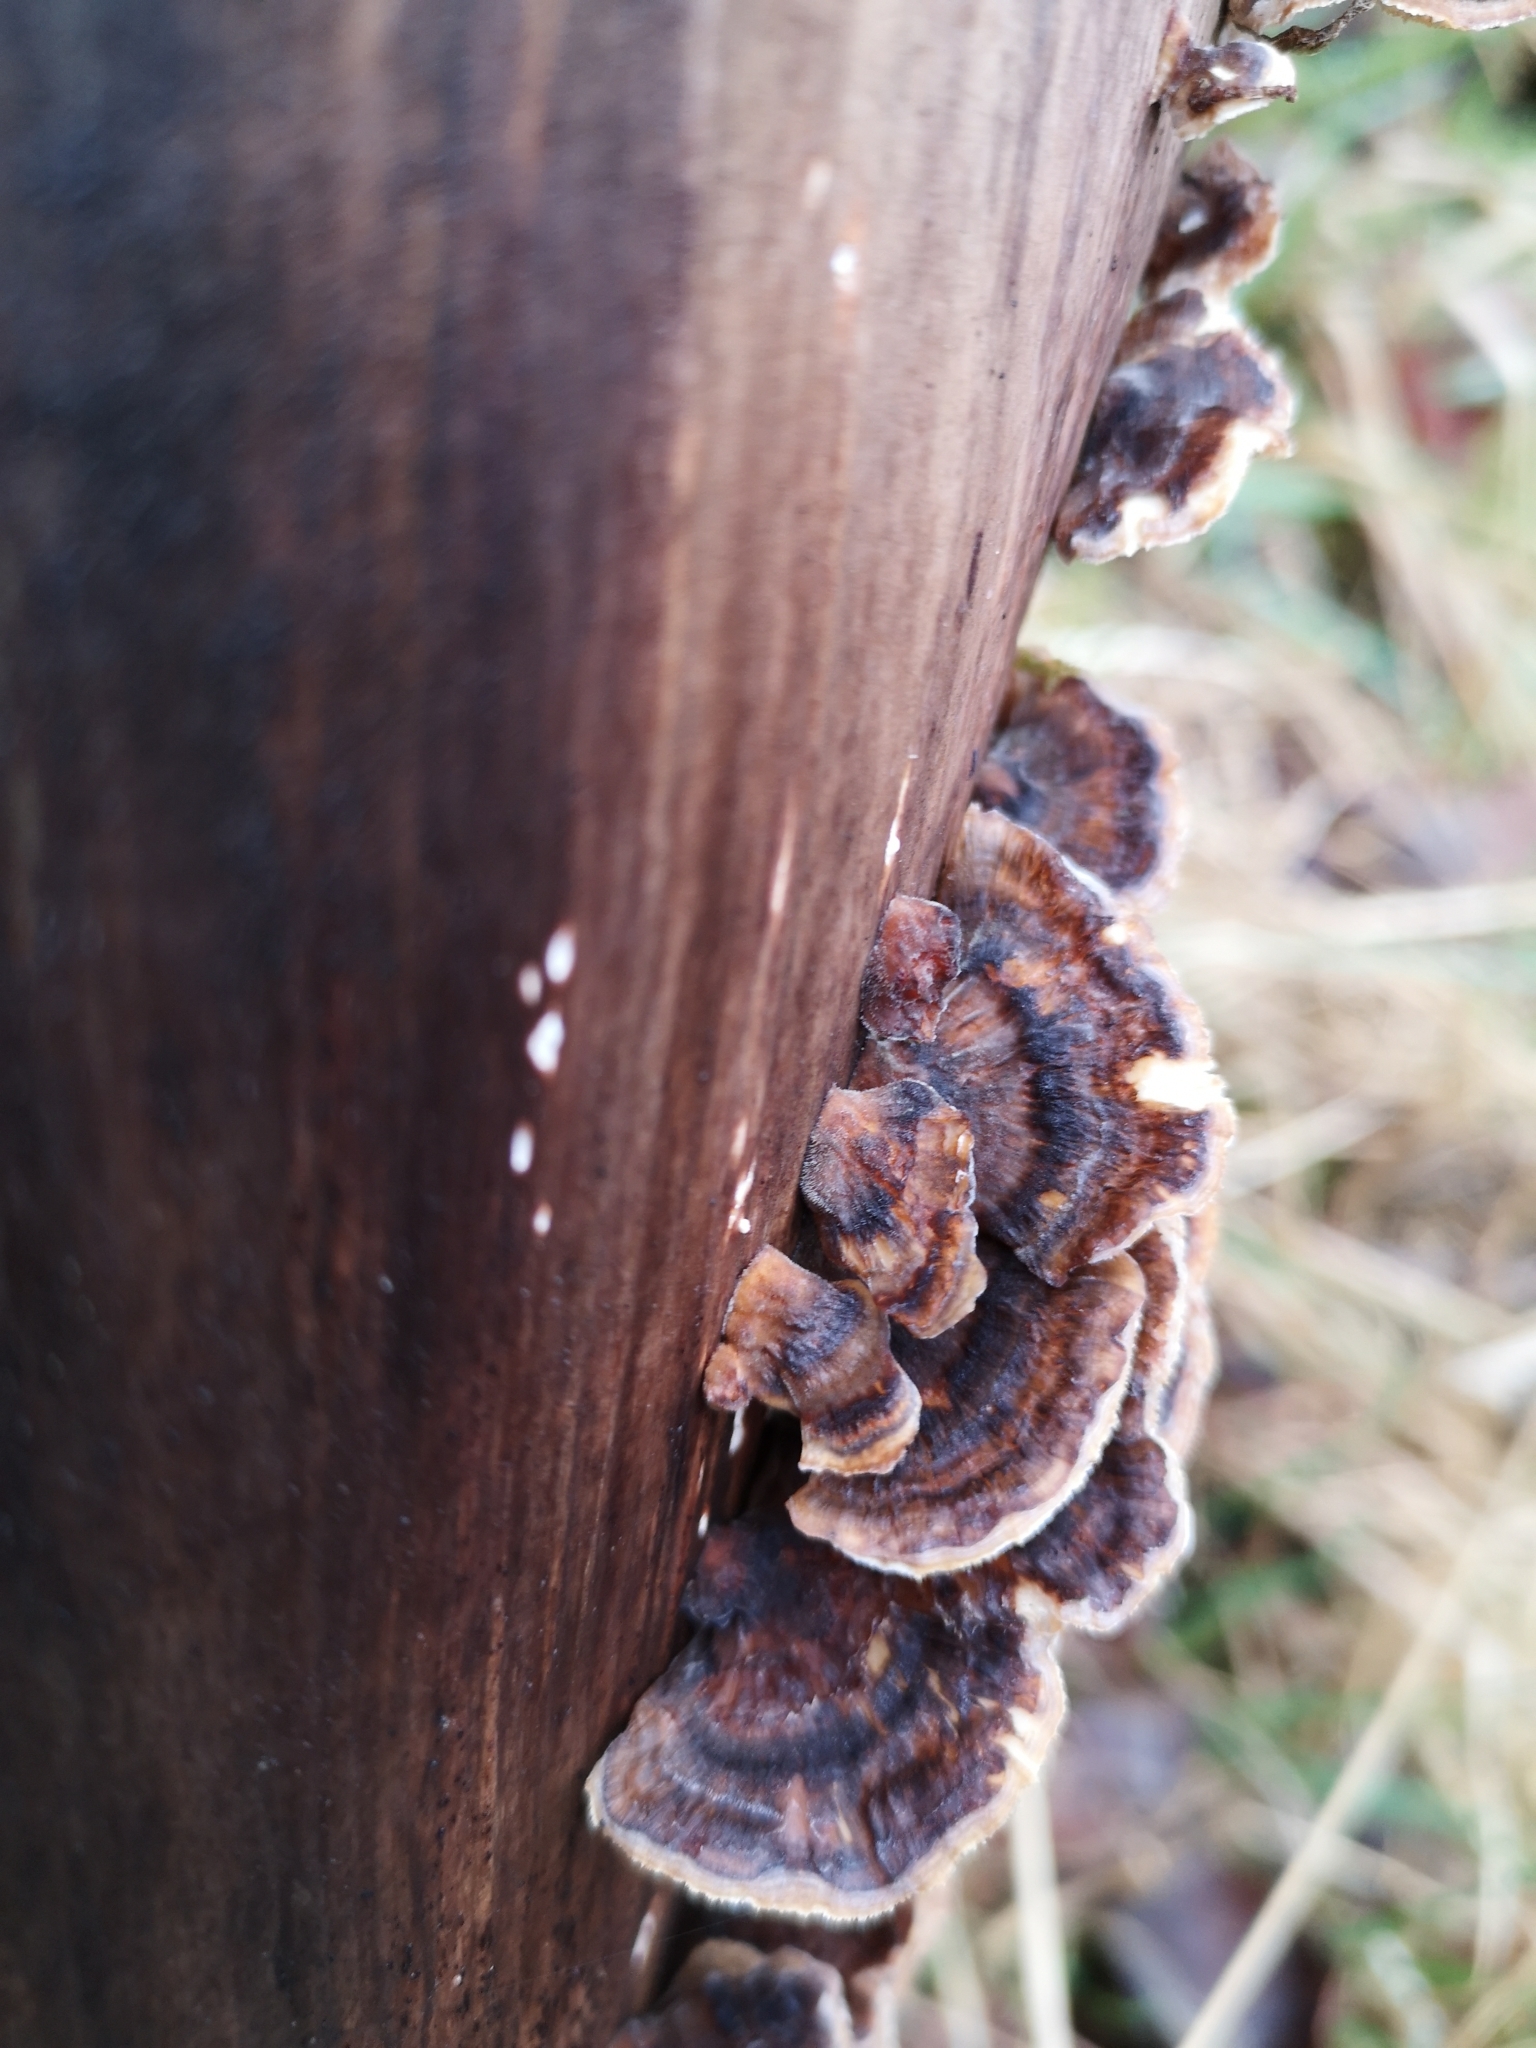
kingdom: Fungi
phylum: Basidiomycota
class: Agaricomycetes
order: Polyporales
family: Polyporaceae
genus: Trametes
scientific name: Trametes versicolor
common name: Turkeytail
